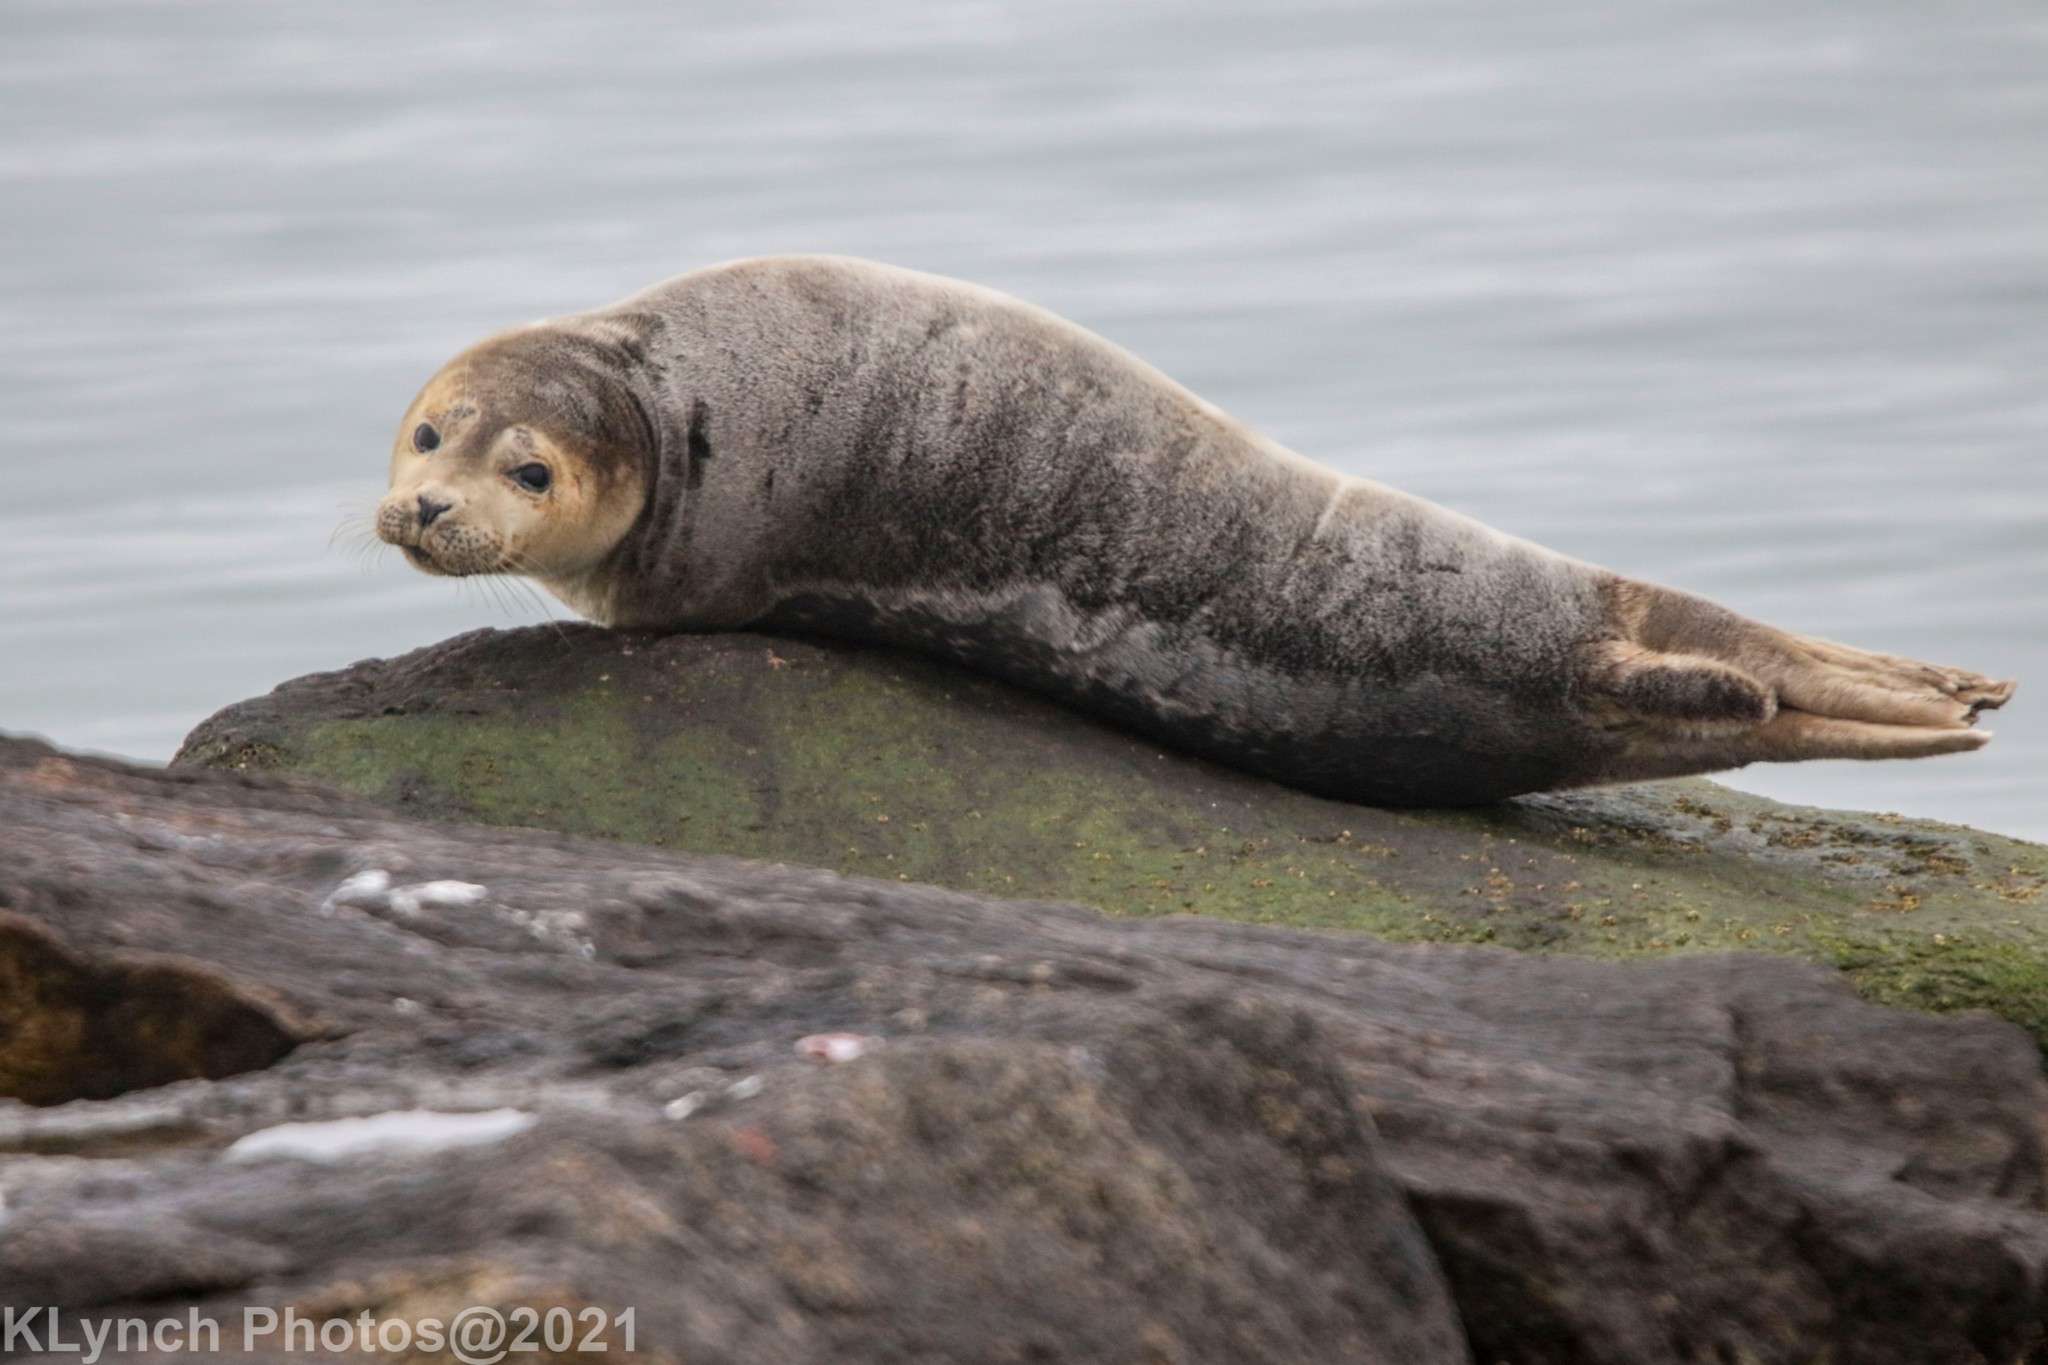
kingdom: Animalia
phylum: Chordata
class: Mammalia
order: Carnivora
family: Phocidae
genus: Phoca
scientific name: Phoca vitulina
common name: Harbor seal
